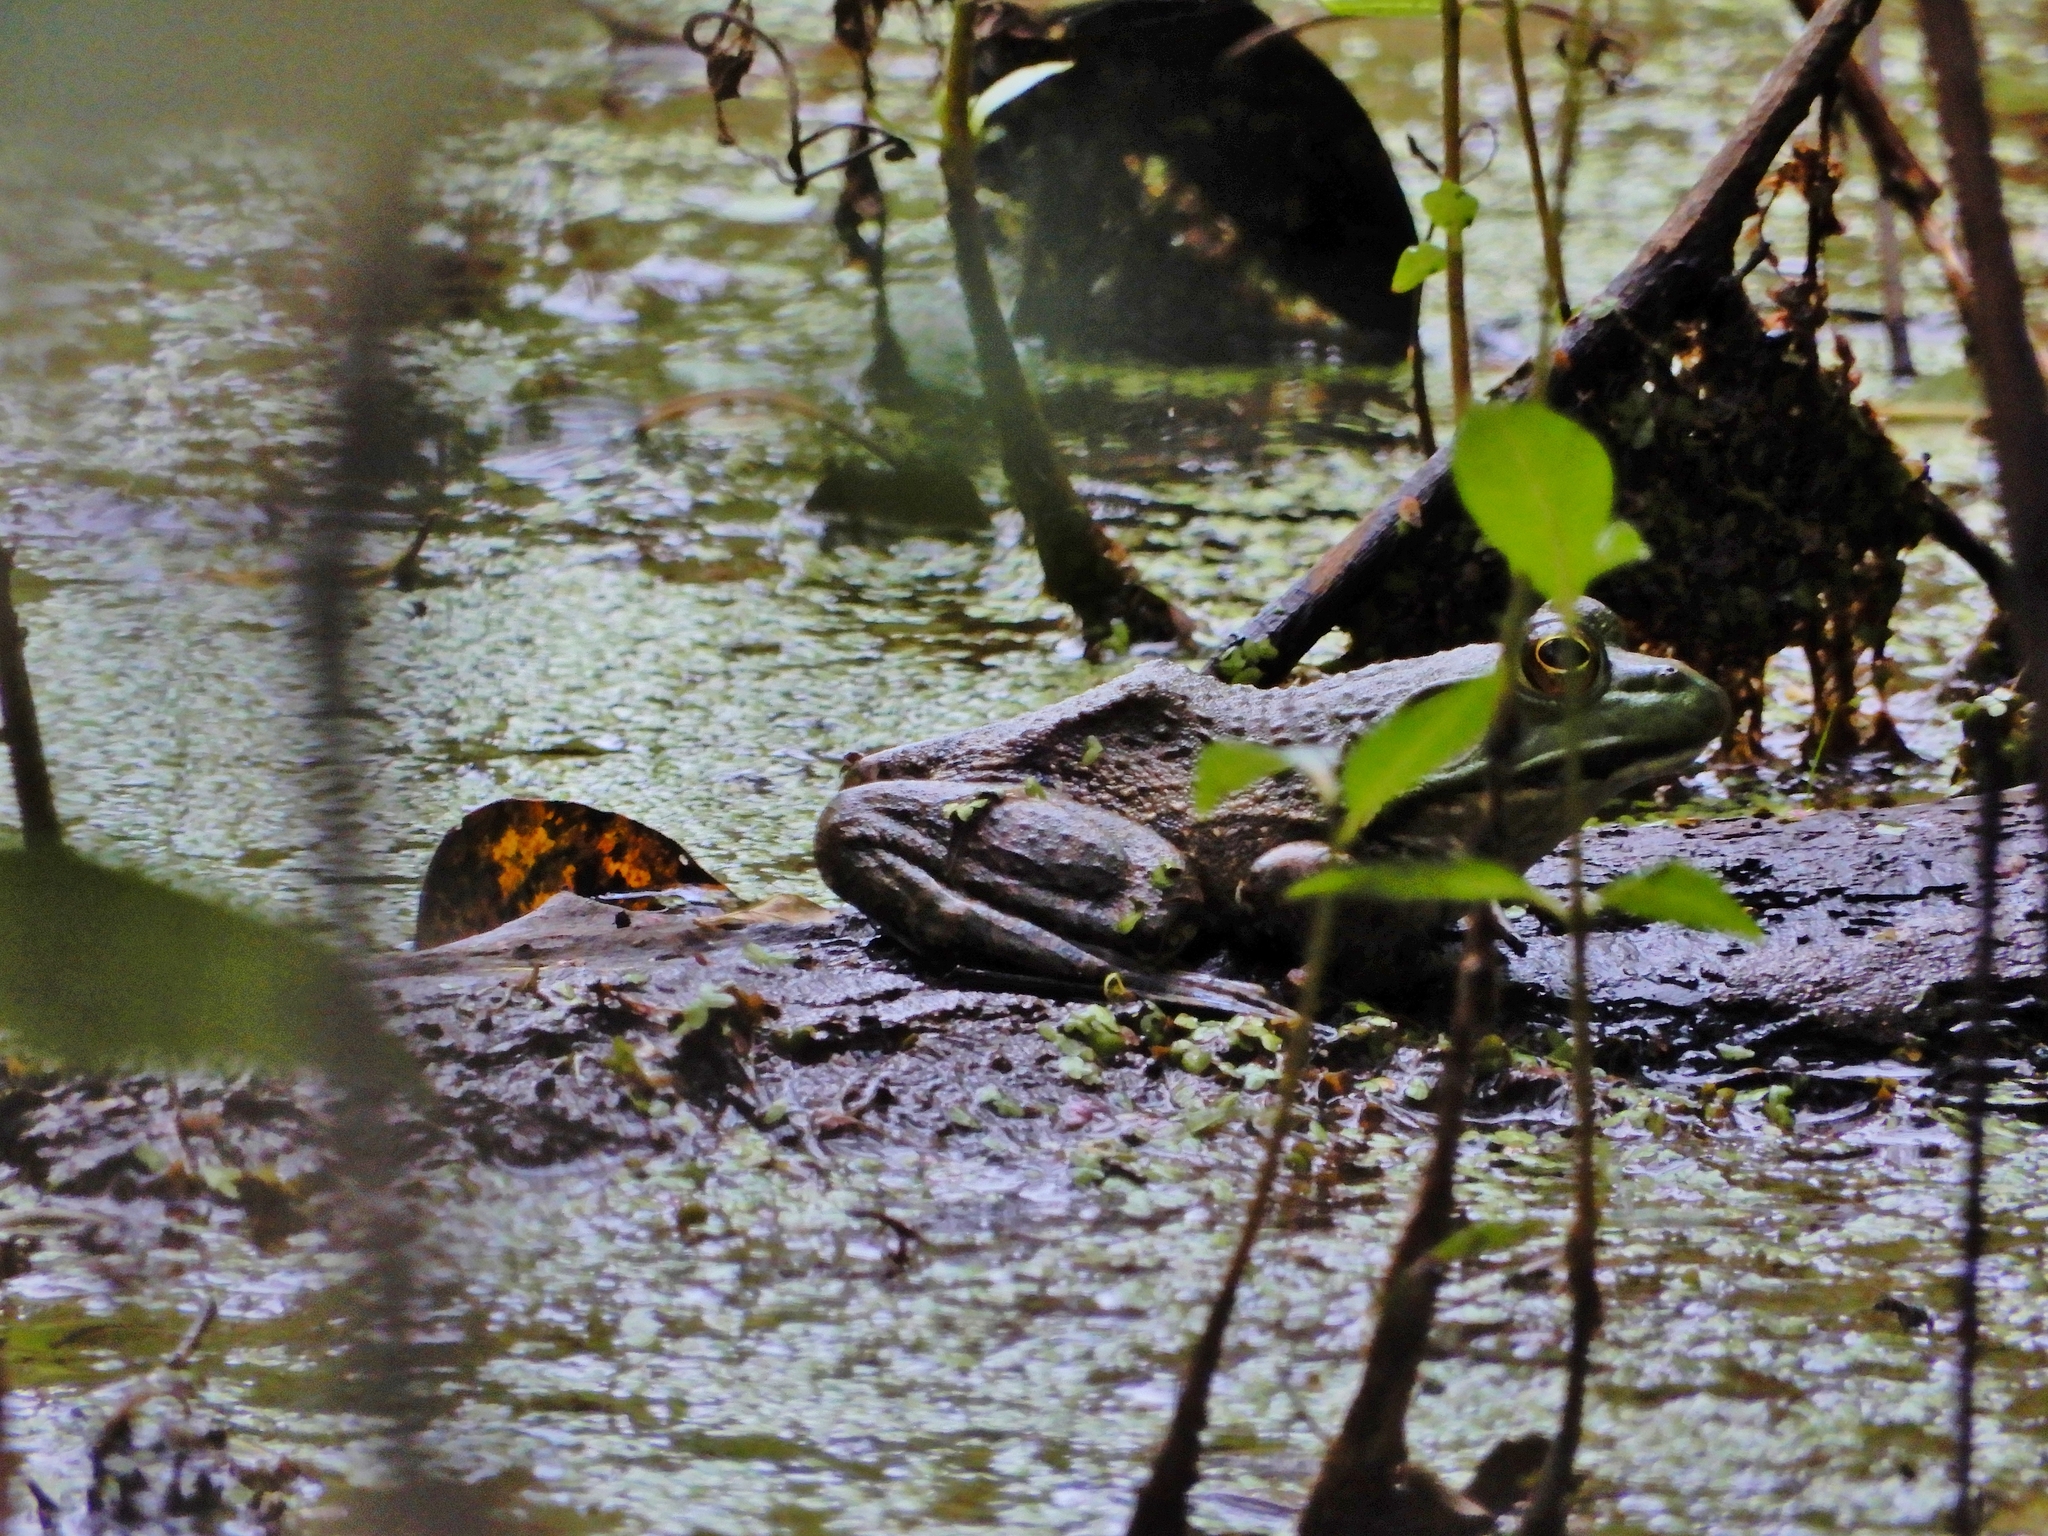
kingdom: Animalia
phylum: Chordata
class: Amphibia
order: Anura
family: Ranidae
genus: Lithobates
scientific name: Lithobates catesbeianus
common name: American bullfrog
